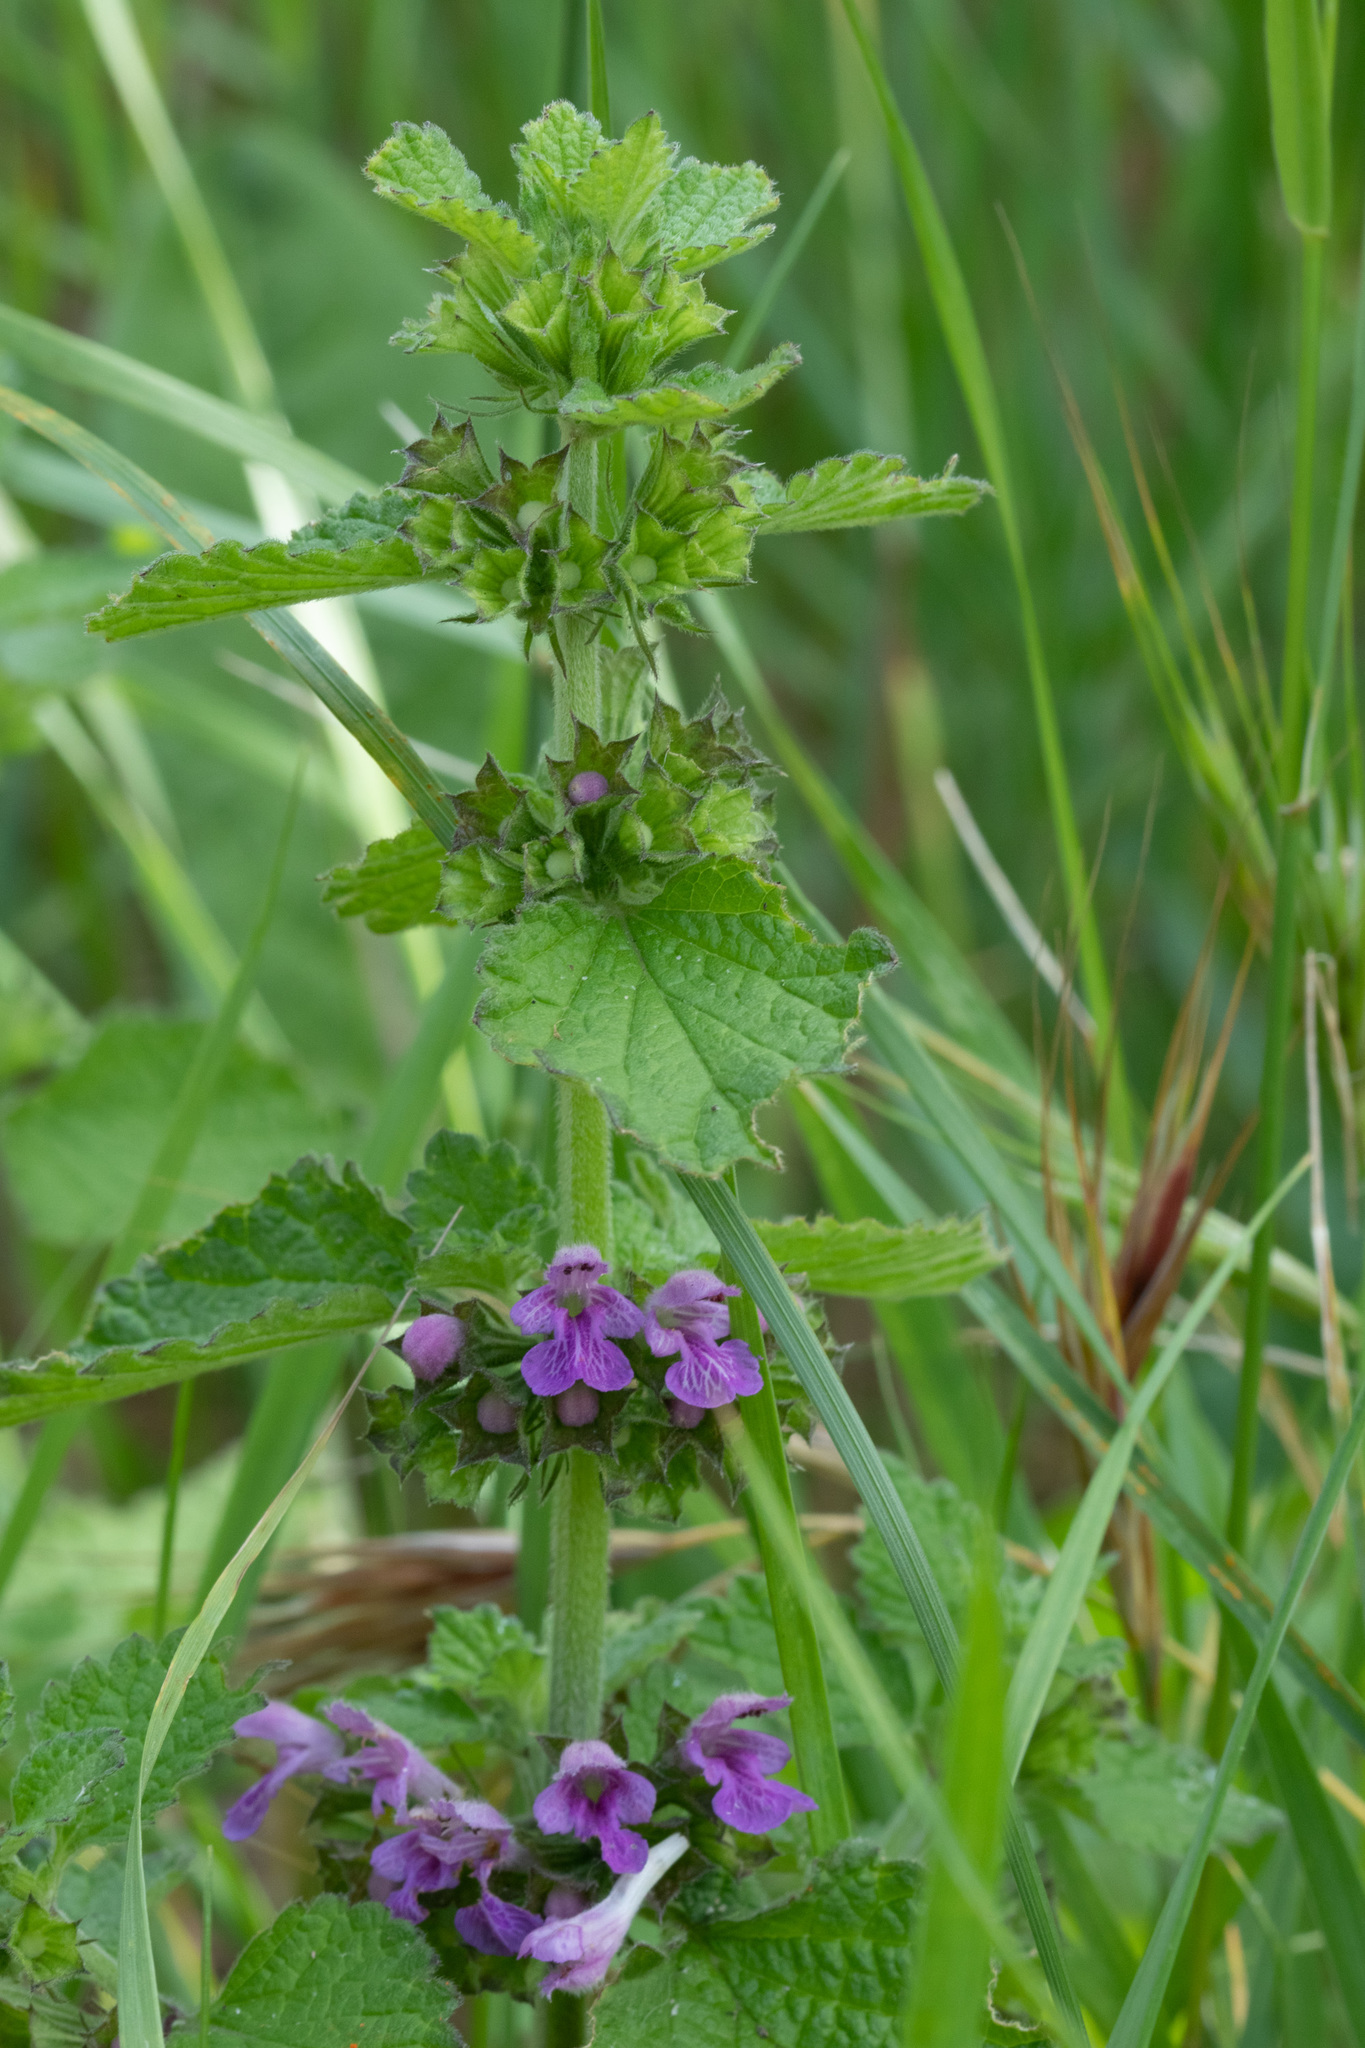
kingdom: Plantae
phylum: Tracheophyta
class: Magnoliopsida
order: Lamiales
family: Lamiaceae
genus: Ballota
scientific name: Ballota nigra
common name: Black horehound
